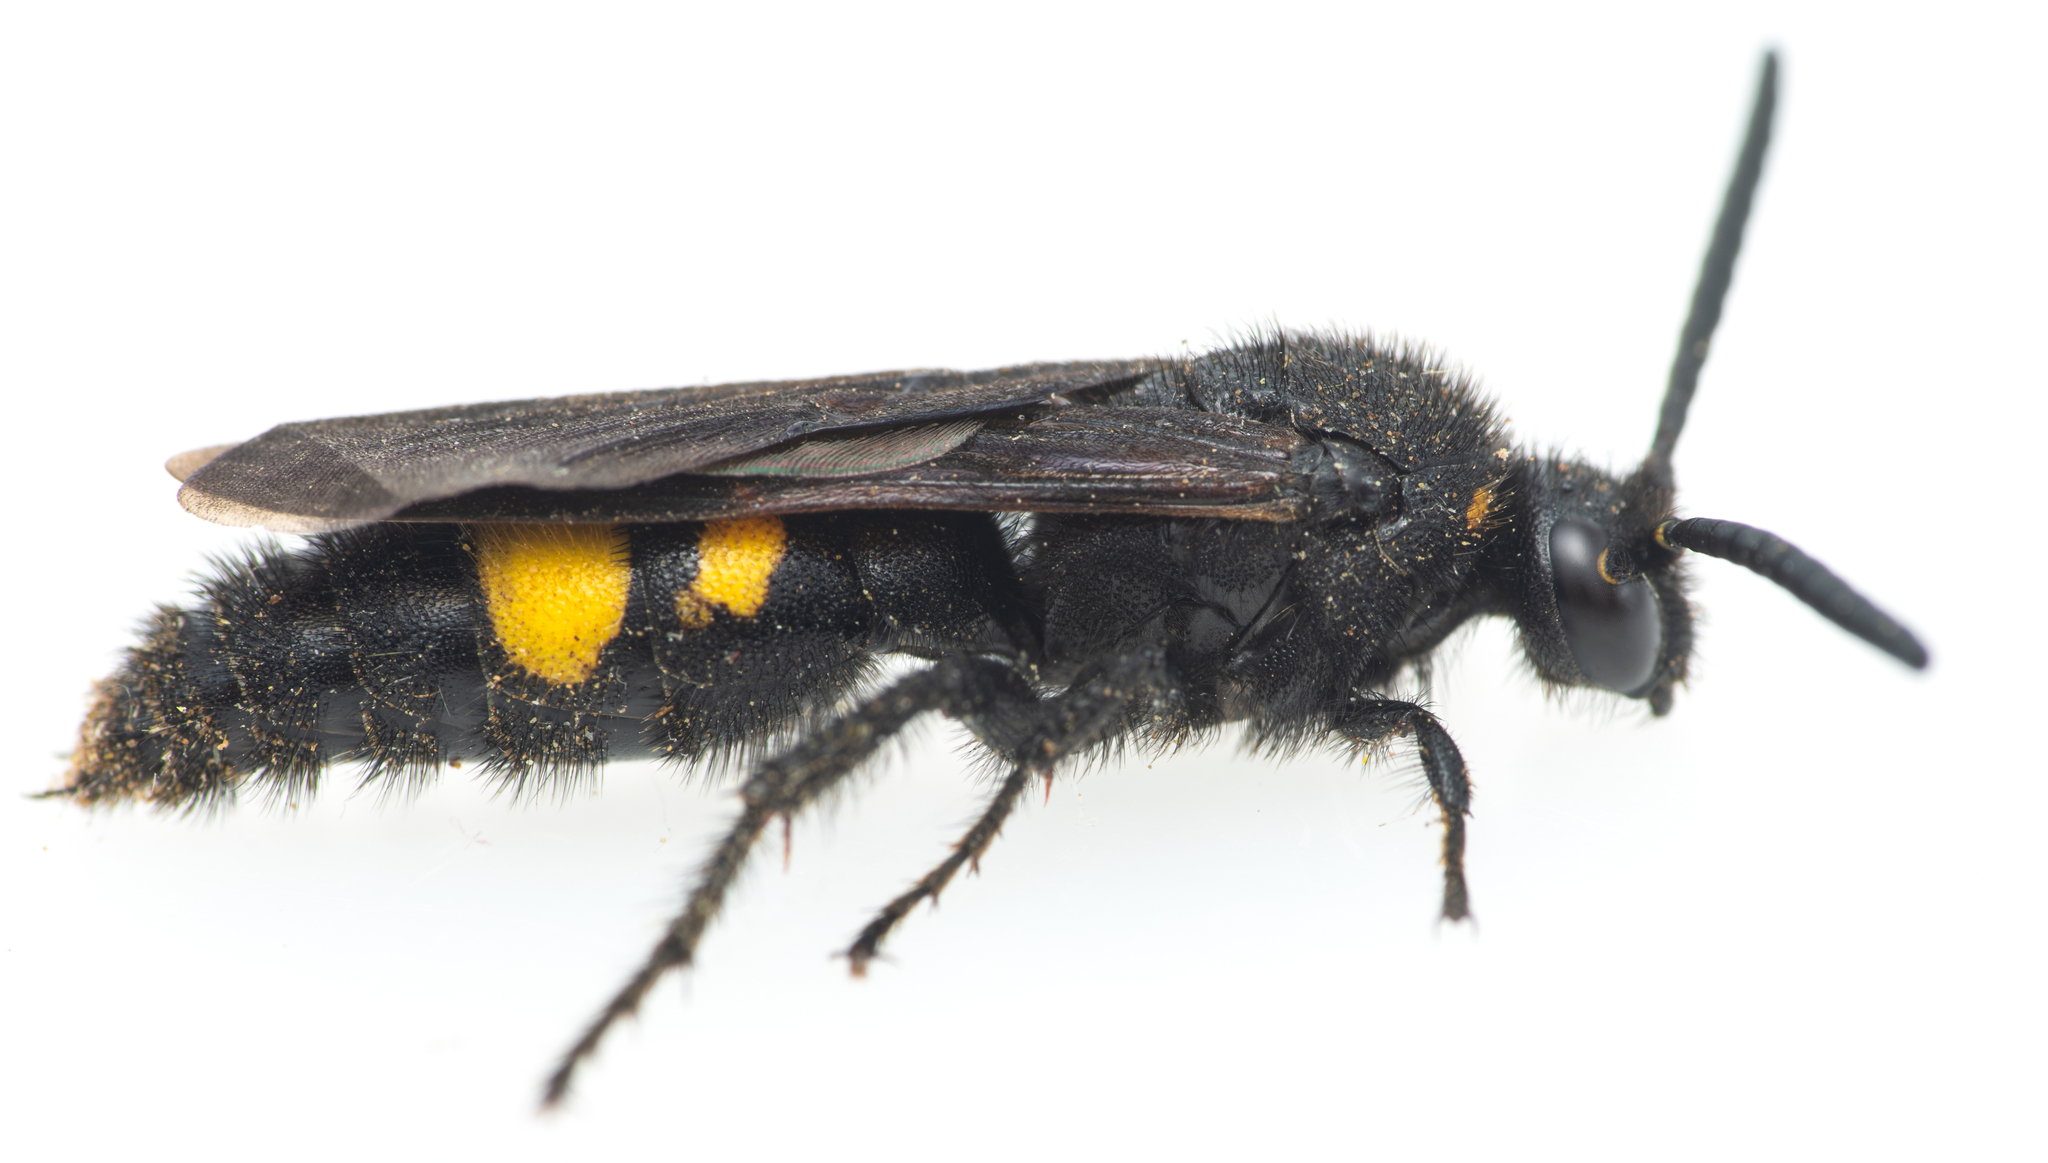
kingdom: Animalia
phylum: Arthropoda
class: Insecta
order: Hymenoptera
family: Scoliidae
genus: Scolia
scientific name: Scolia hortorum
